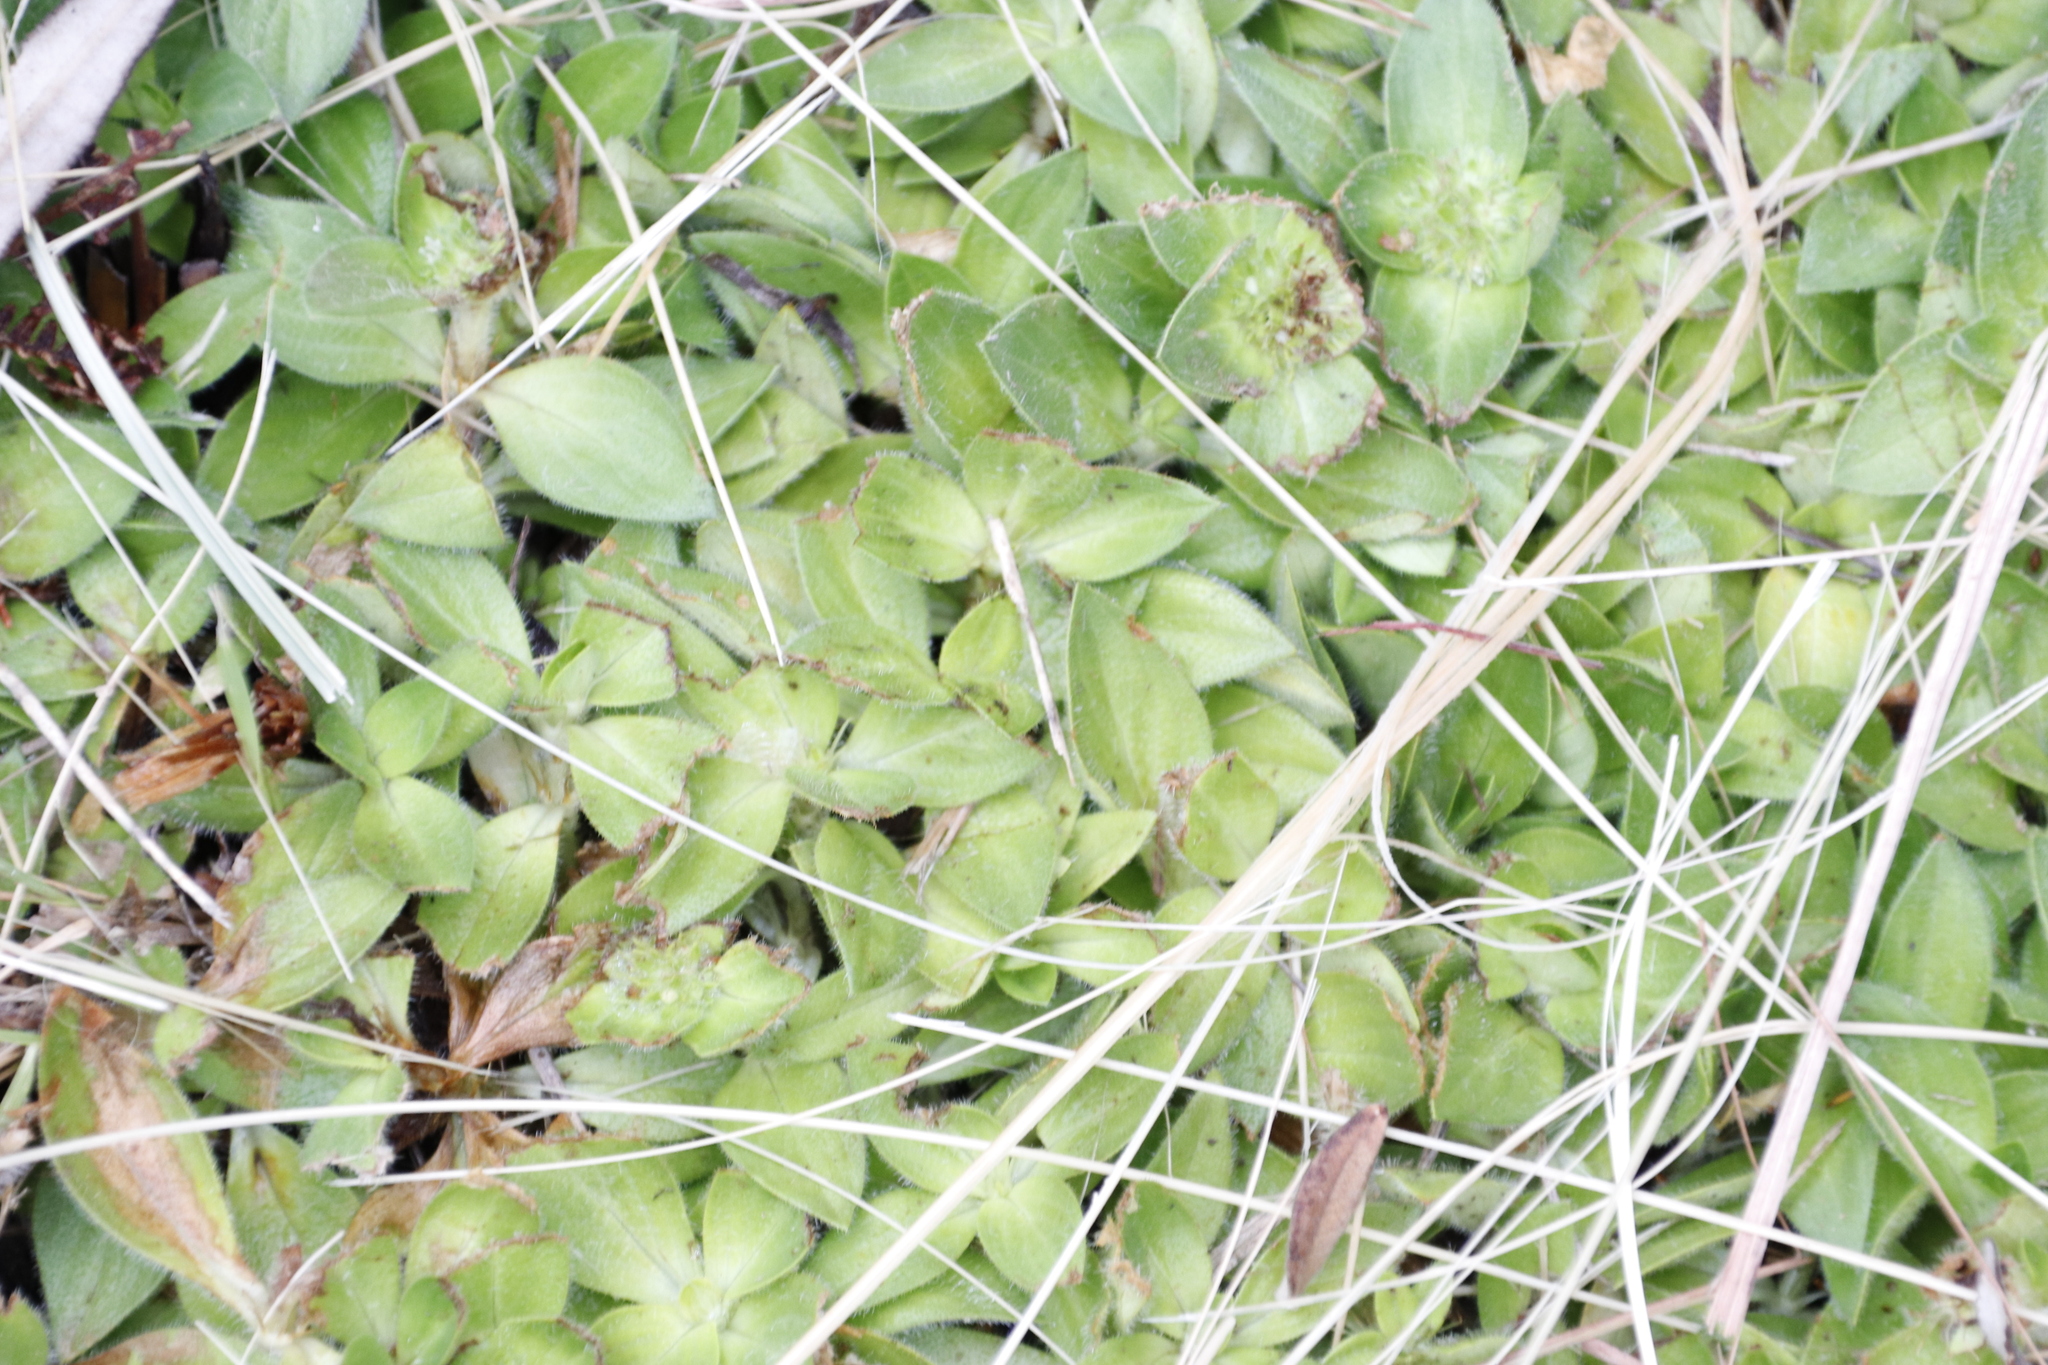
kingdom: Plantae
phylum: Tracheophyta
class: Magnoliopsida
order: Gentianales
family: Rubiaceae
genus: Richardia
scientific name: Richardia brasiliensis
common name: Tropical mexican clover
